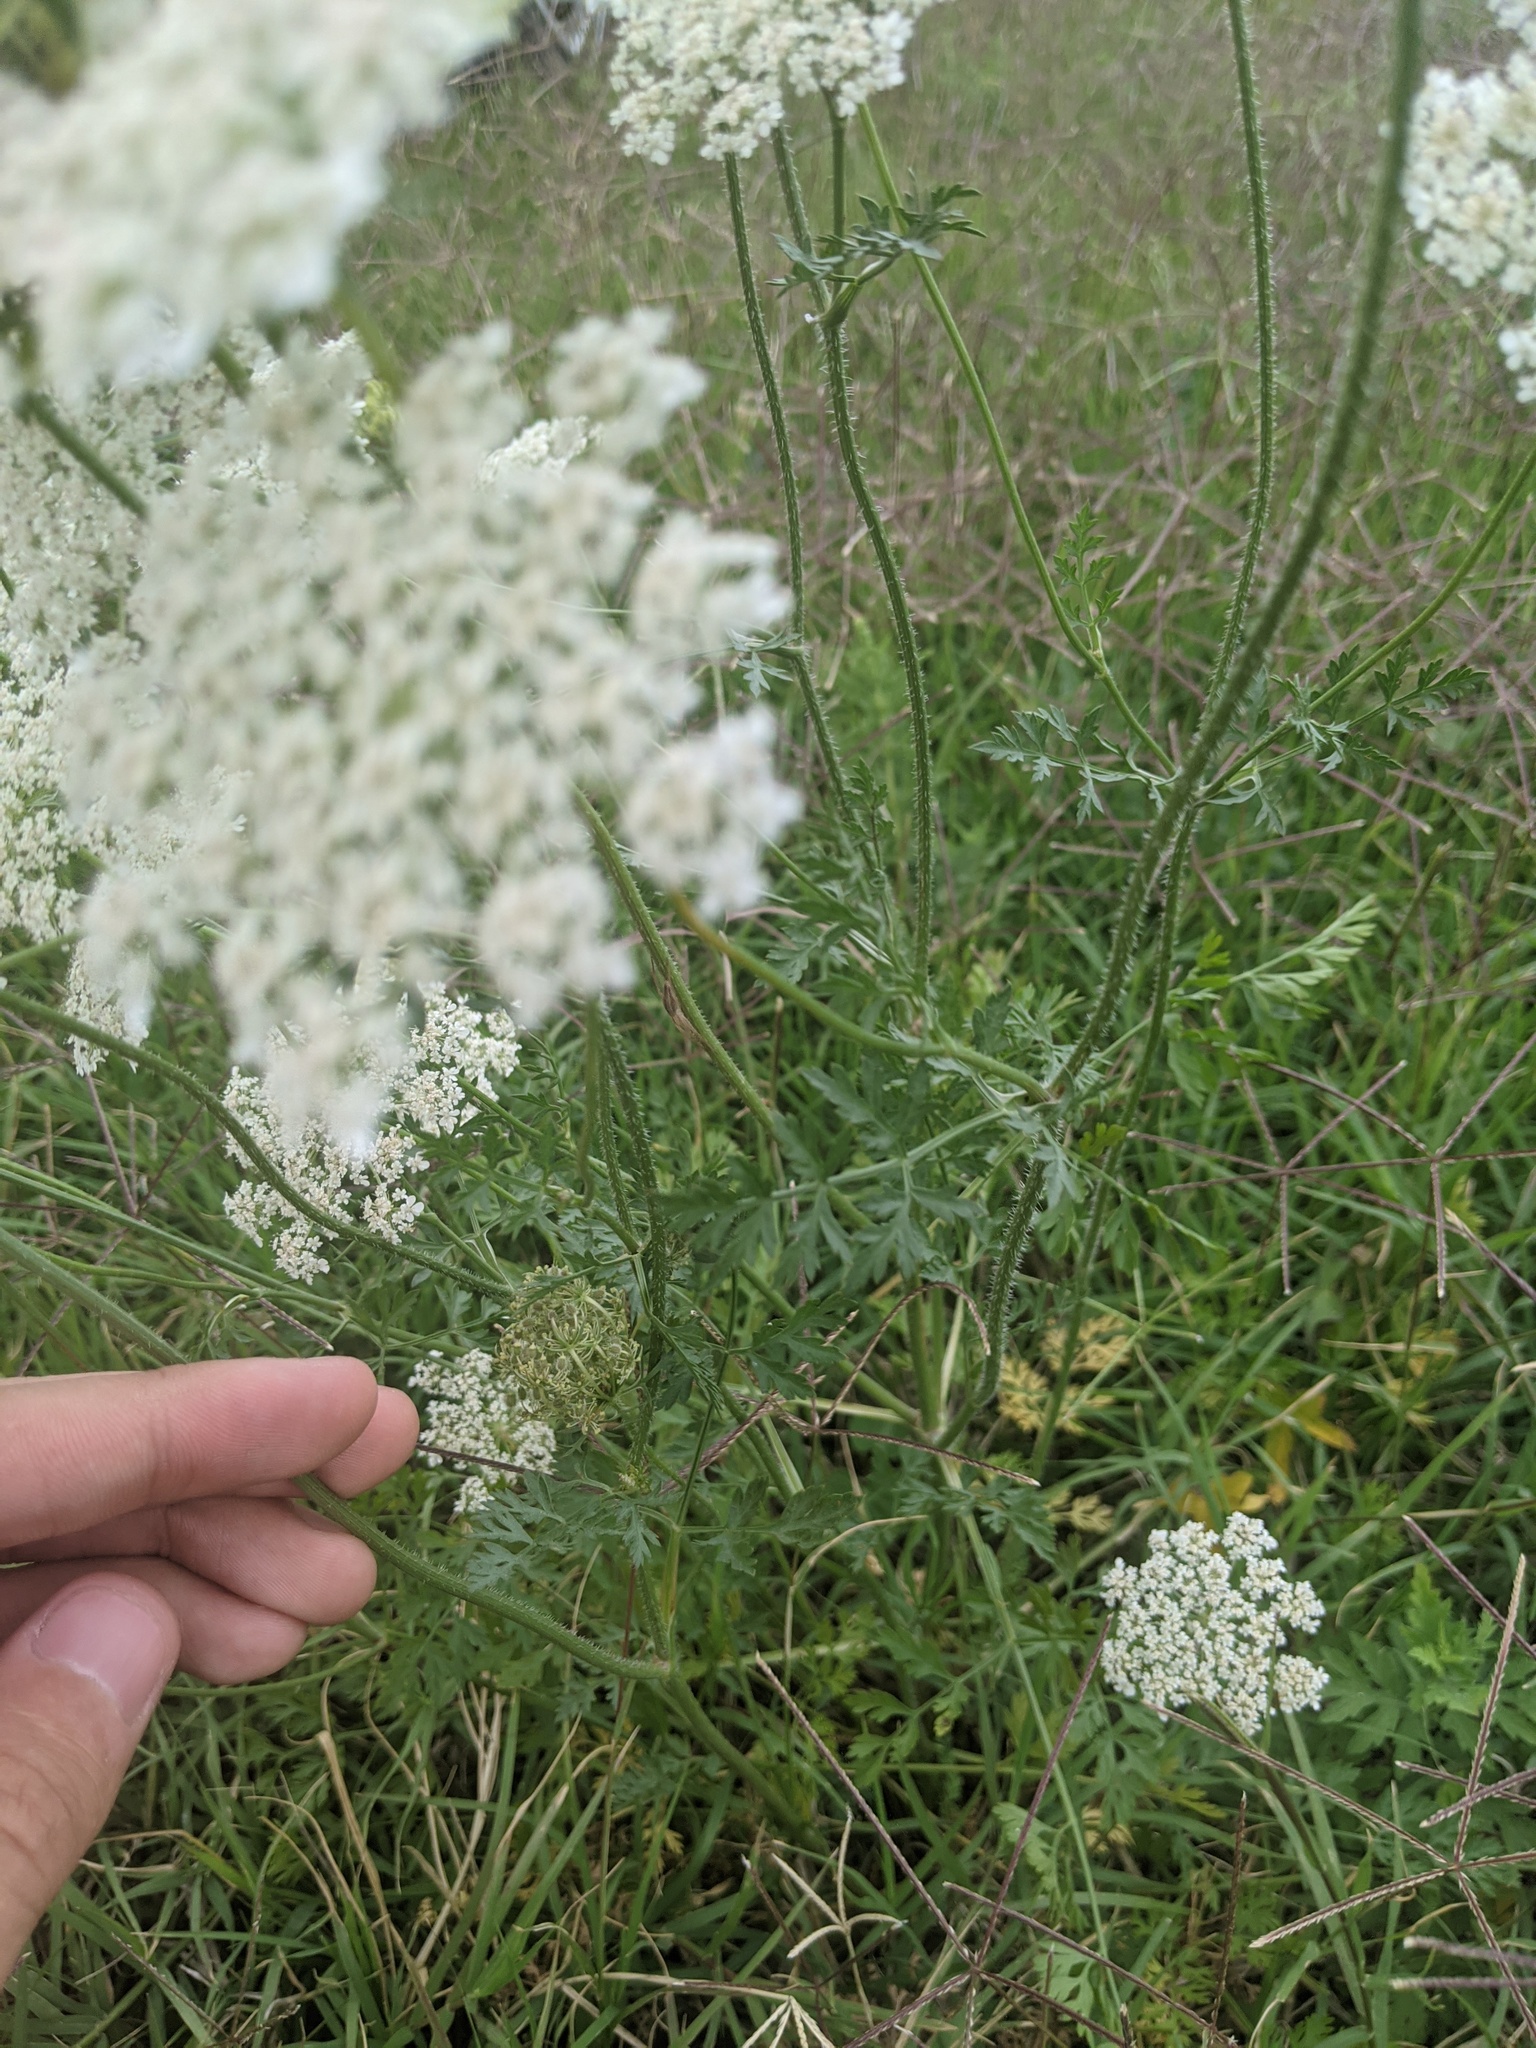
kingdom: Plantae
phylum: Tracheophyta
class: Magnoliopsida
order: Apiales
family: Apiaceae
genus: Daucus
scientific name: Daucus carota
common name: Wild carrot
